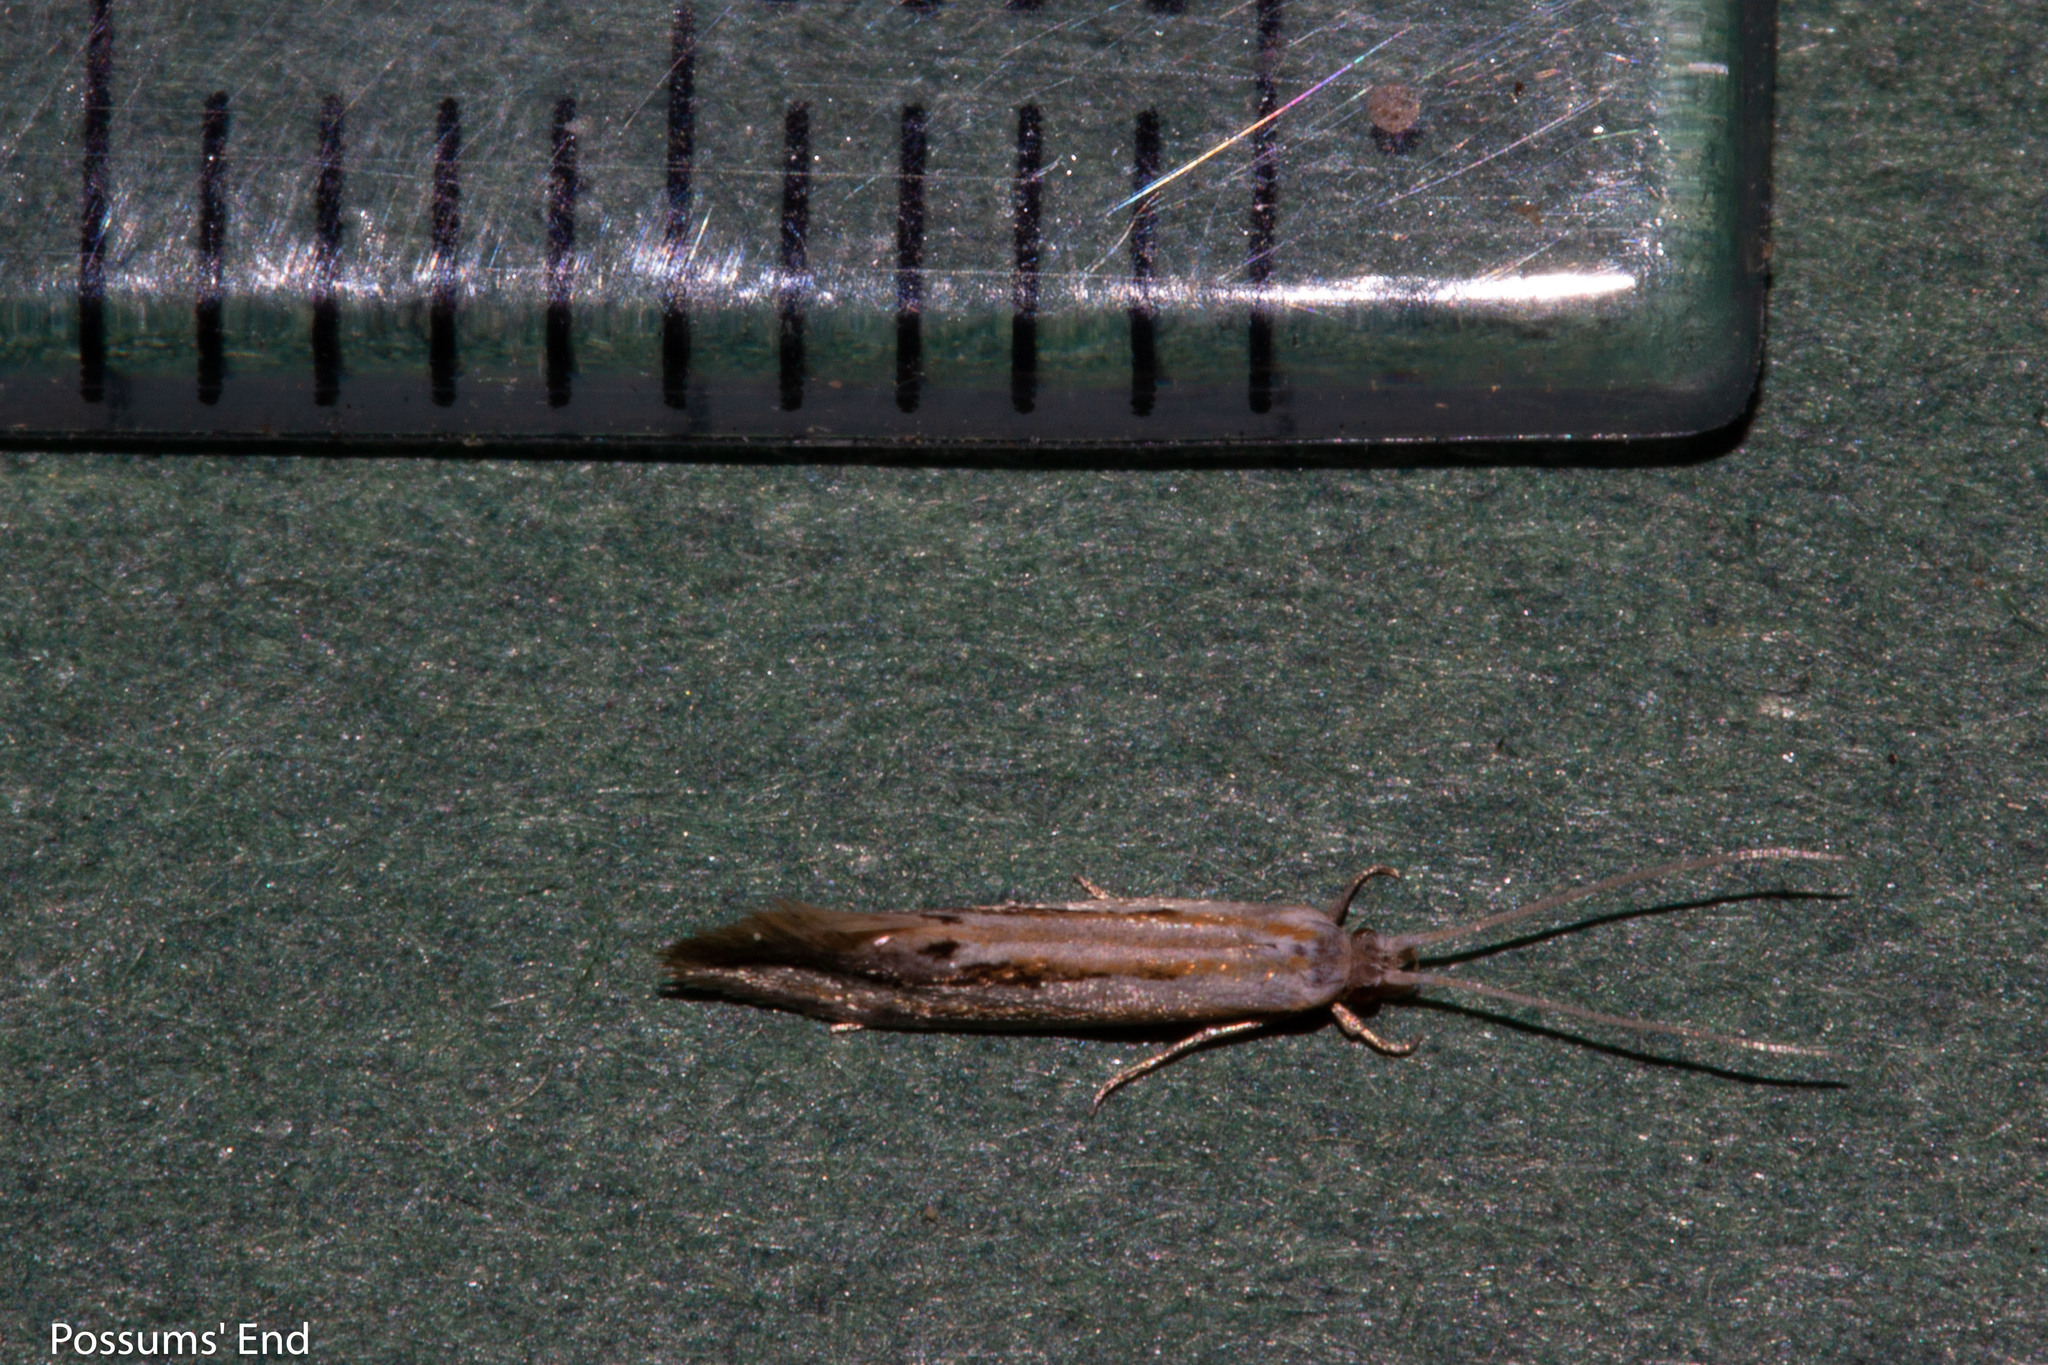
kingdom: Animalia
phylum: Arthropoda
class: Insecta
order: Lepidoptera
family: Tineidae
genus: Sagephora
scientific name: Sagephora exsanguis
